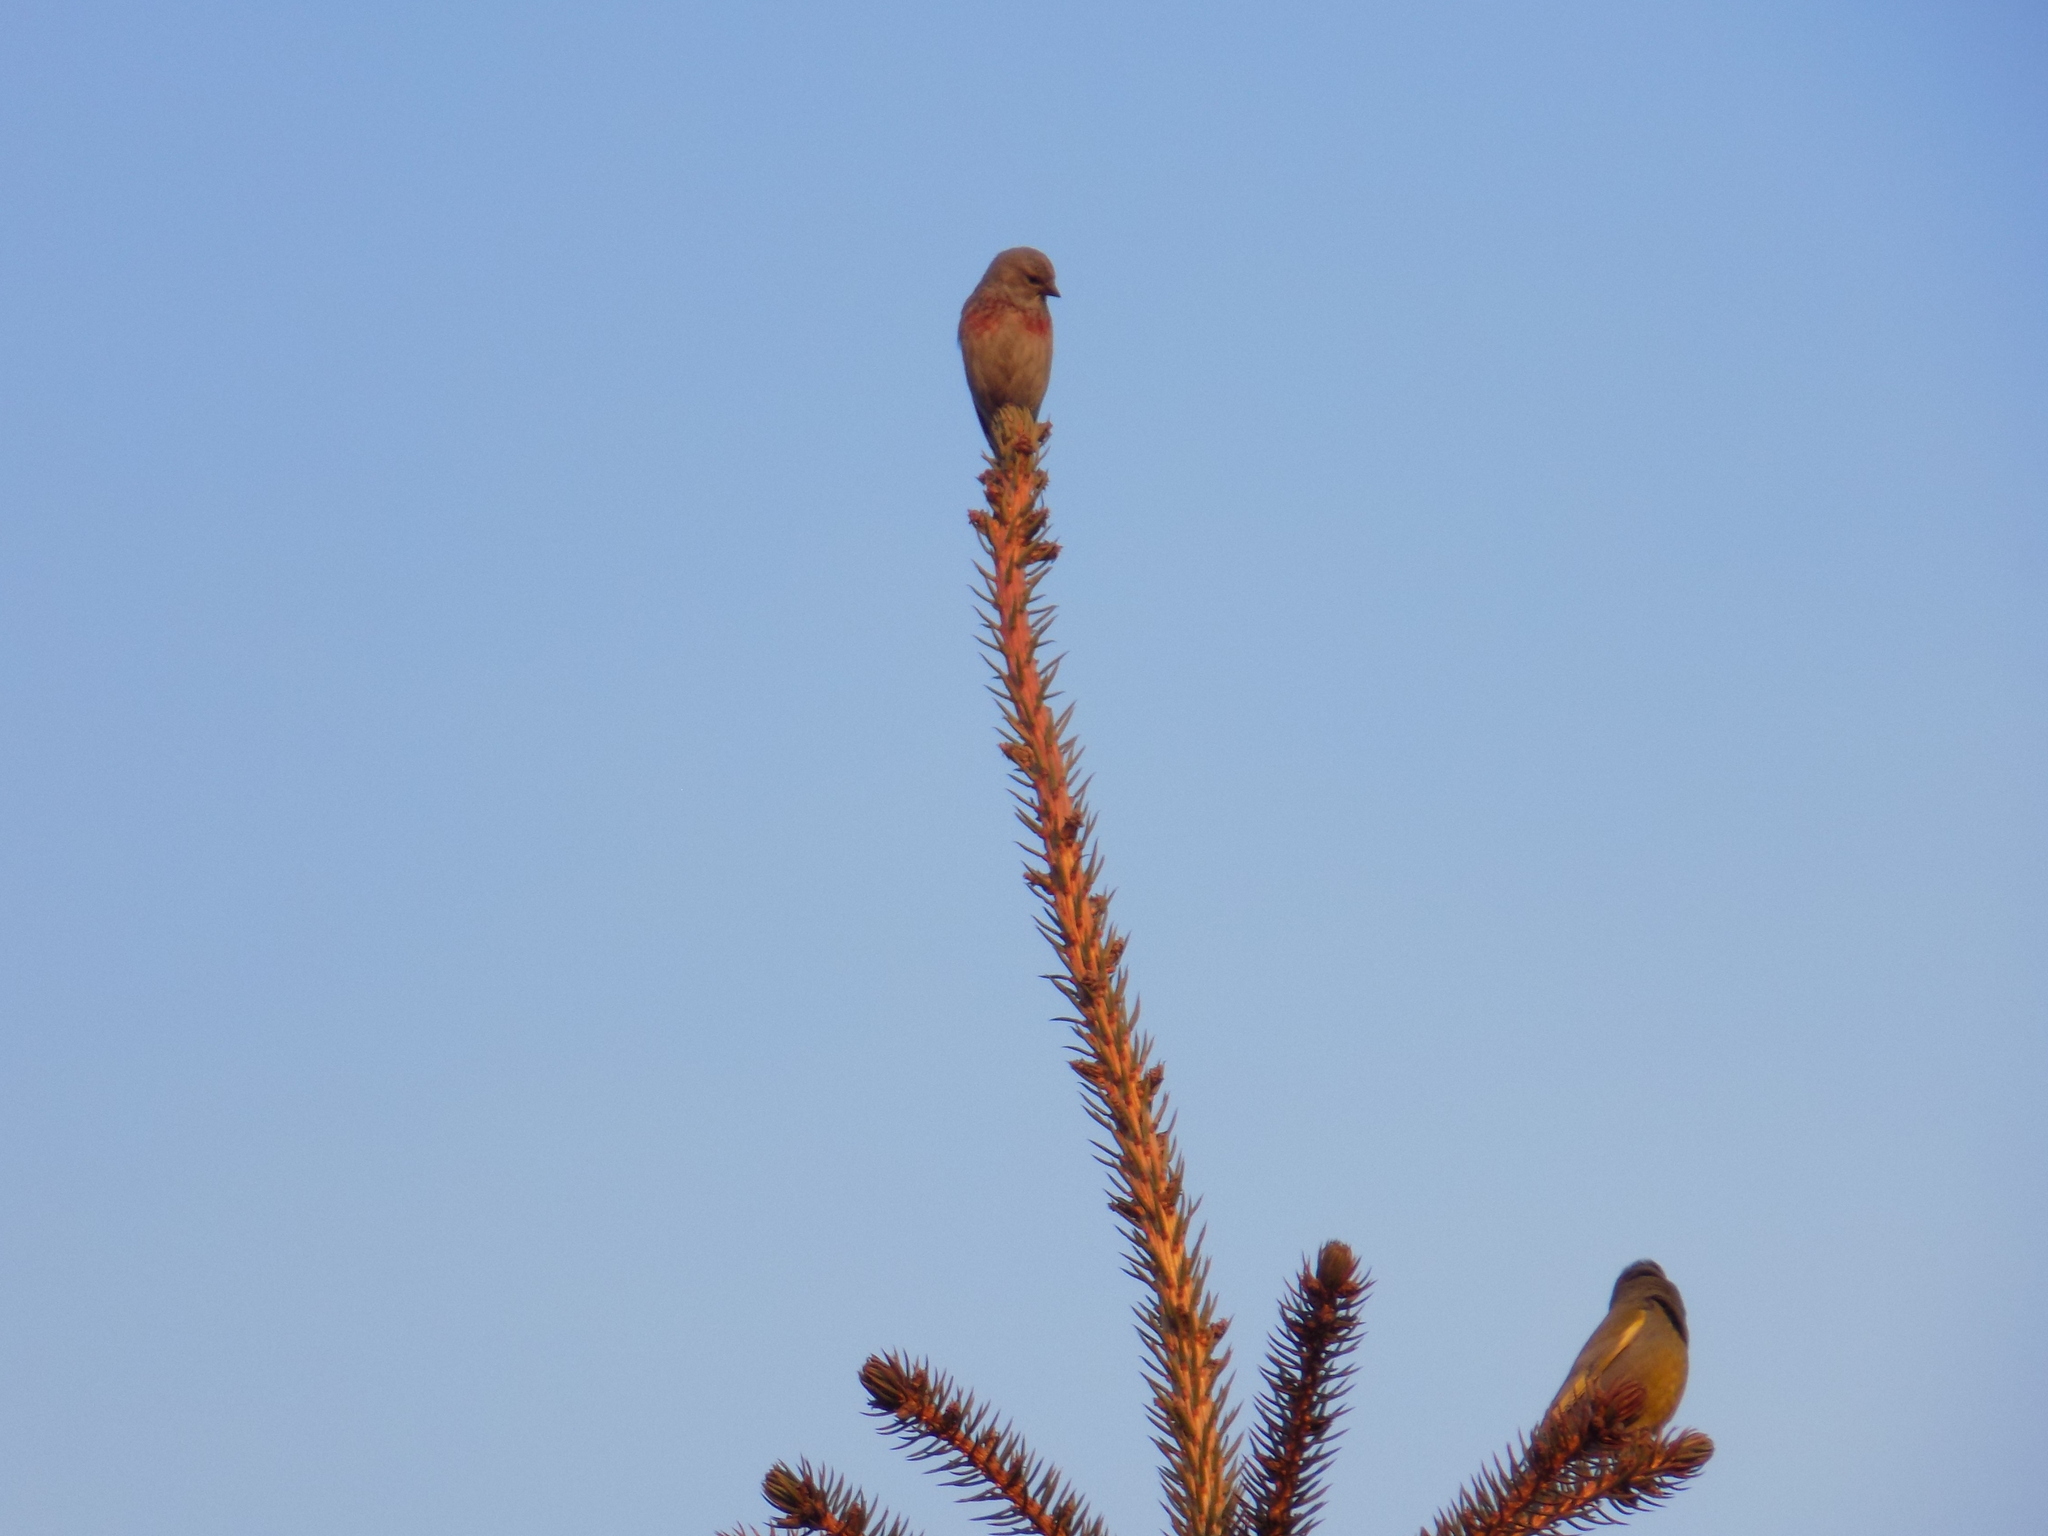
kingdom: Animalia
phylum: Chordata
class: Aves
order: Passeriformes
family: Fringillidae
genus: Linaria
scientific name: Linaria cannabina
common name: Common linnet
